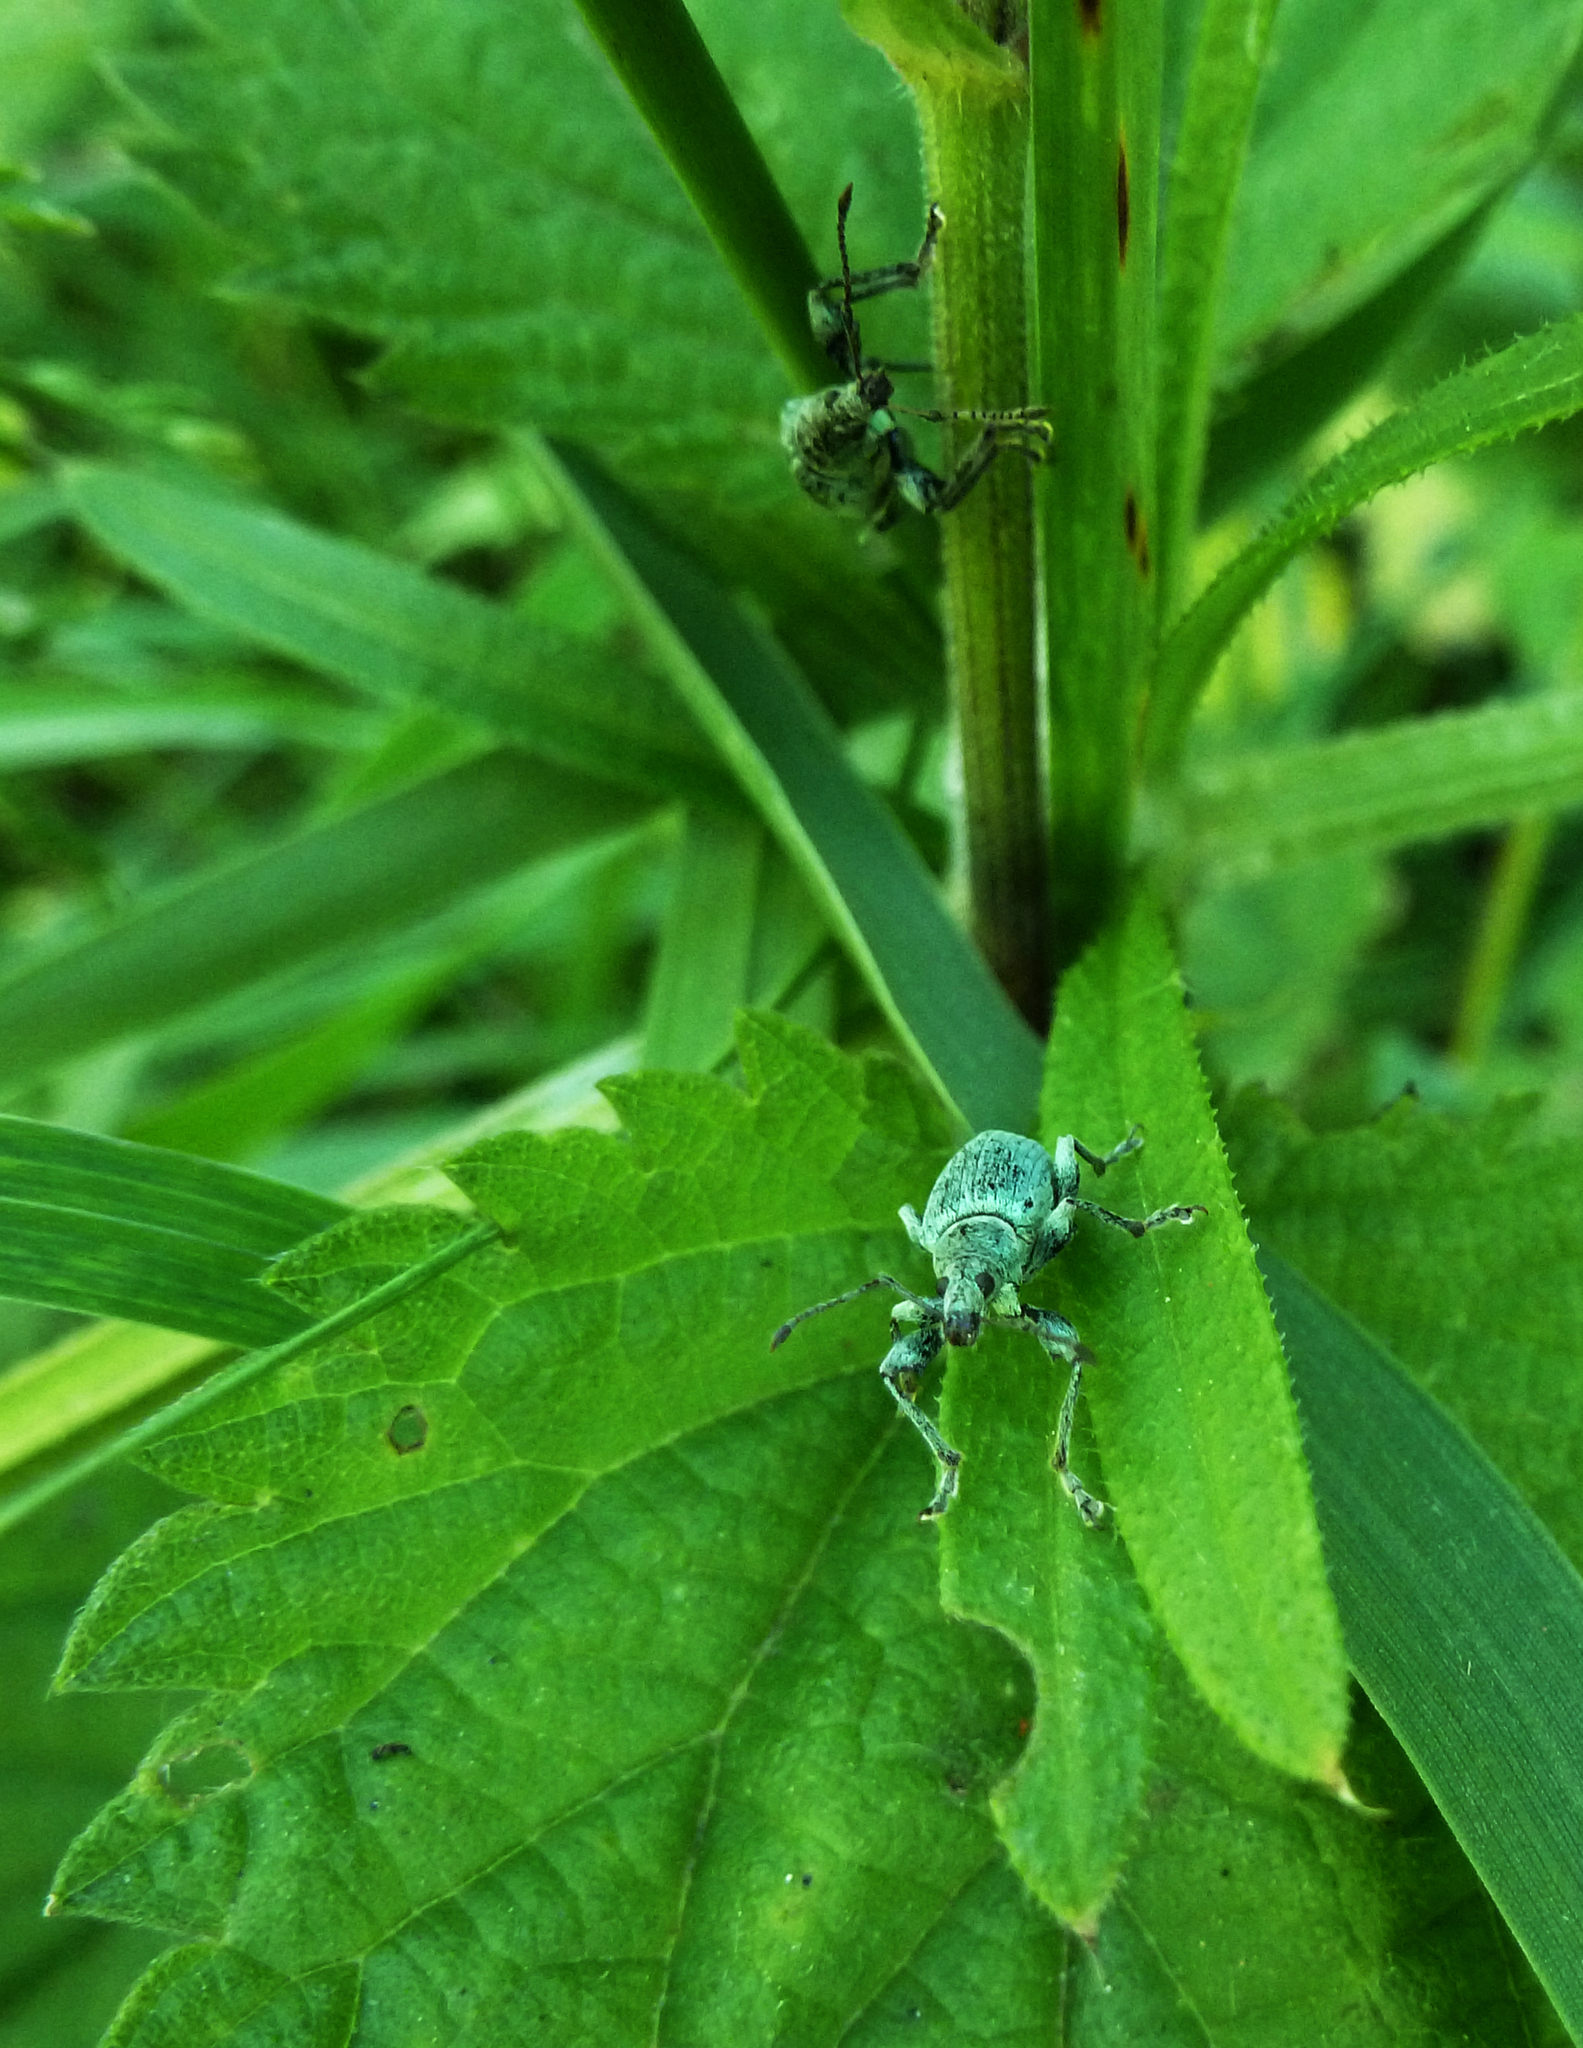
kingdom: Animalia
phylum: Arthropoda
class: Insecta
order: Coleoptera
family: Curculionidae
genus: Phyllobius
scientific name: Phyllobius pomaceus
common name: Green nettle weevil
